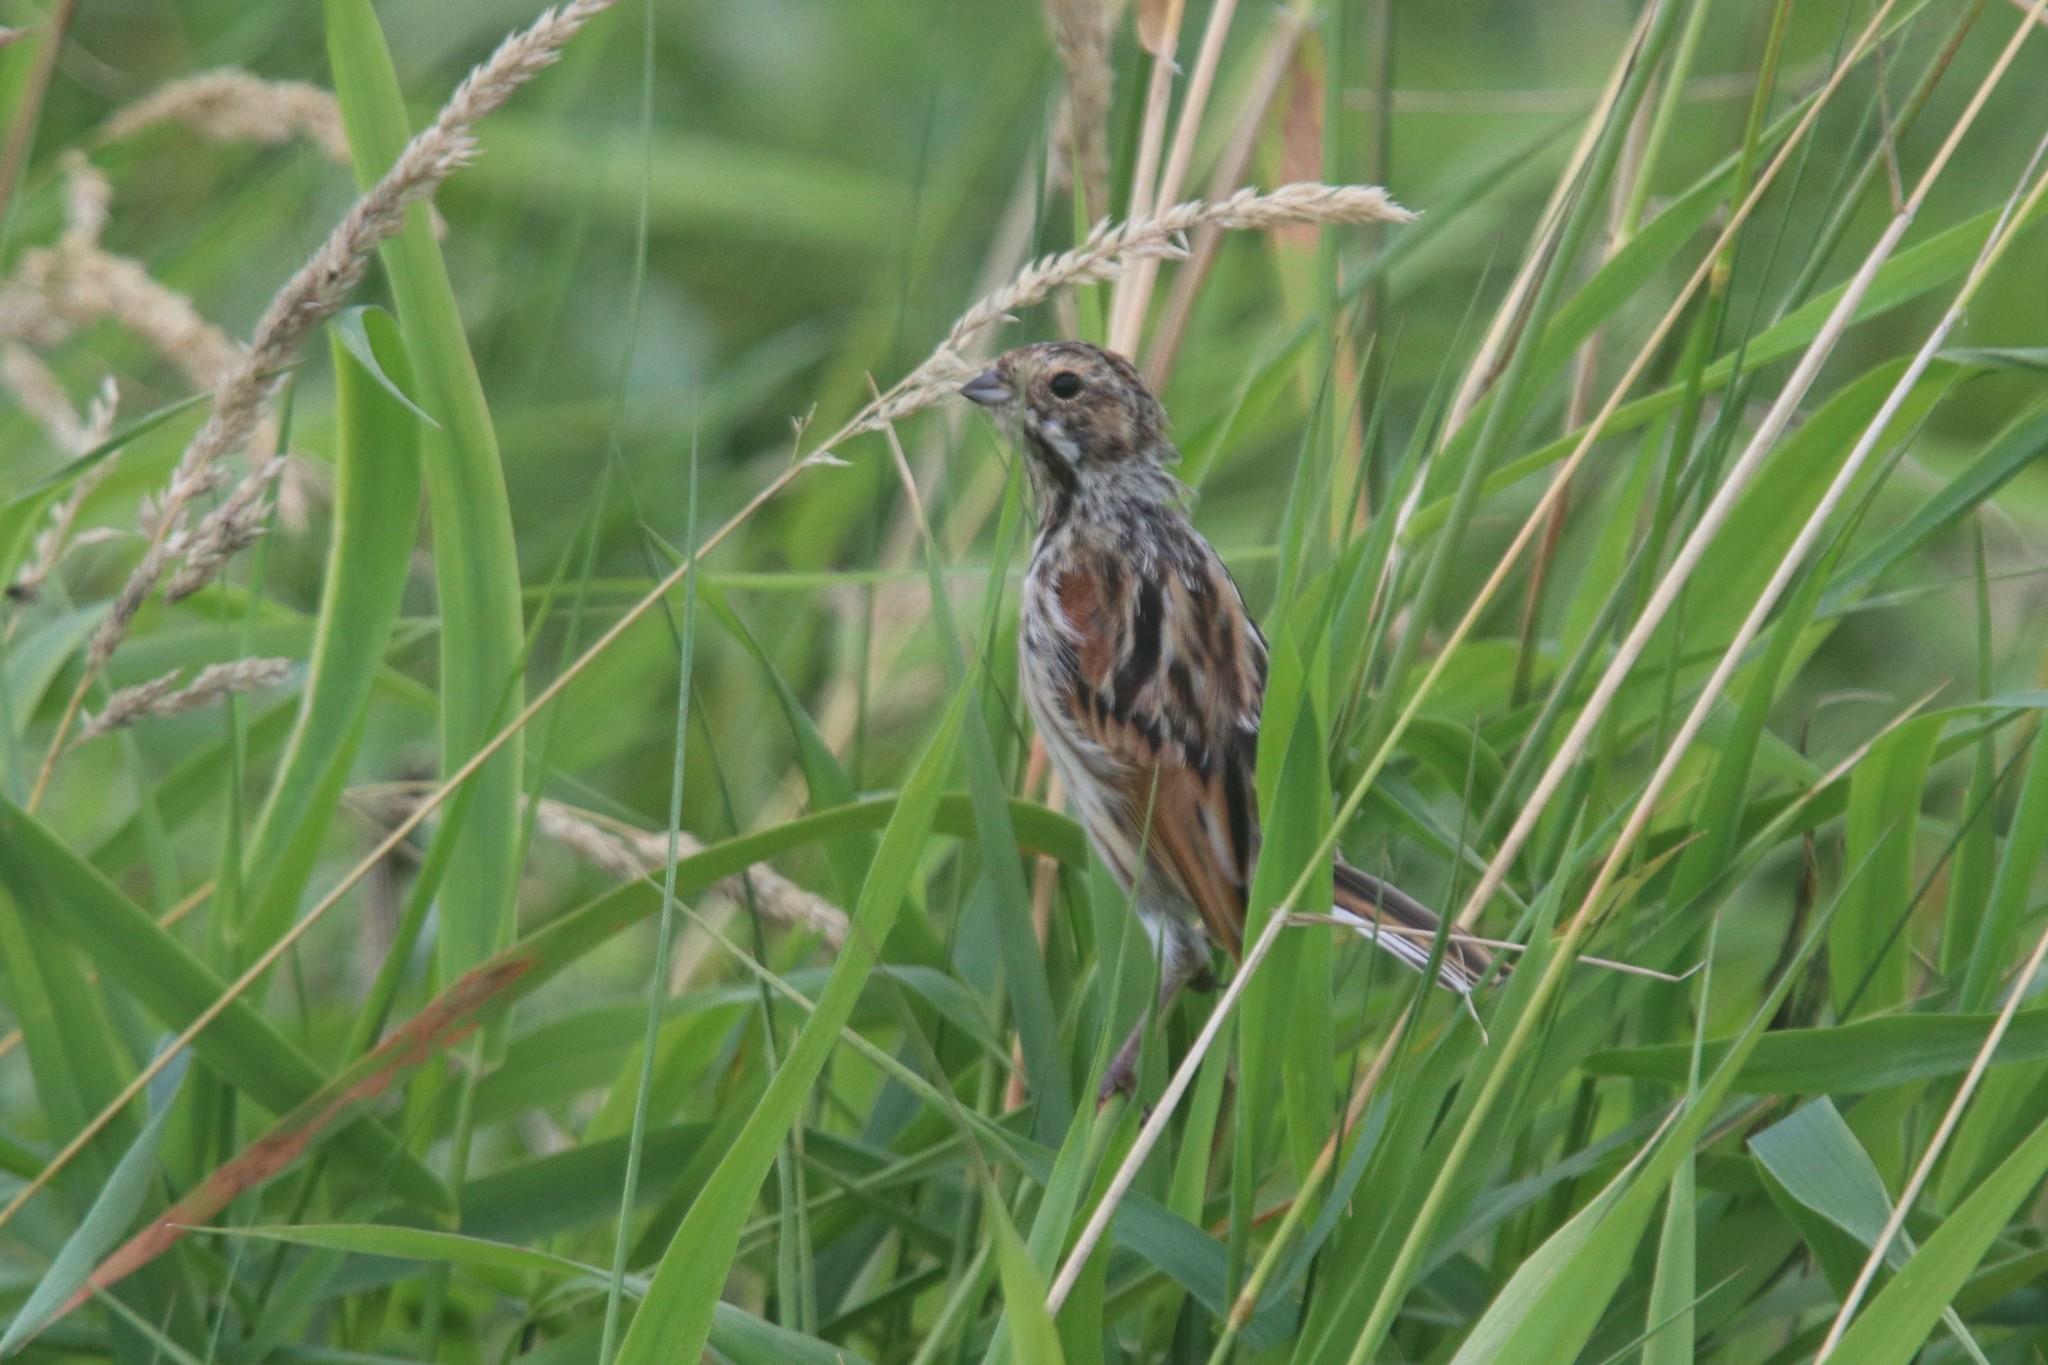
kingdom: Animalia
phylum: Chordata
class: Aves
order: Passeriformes
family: Emberizidae
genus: Emberiza
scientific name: Emberiza schoeniclus
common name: Reed bunting
